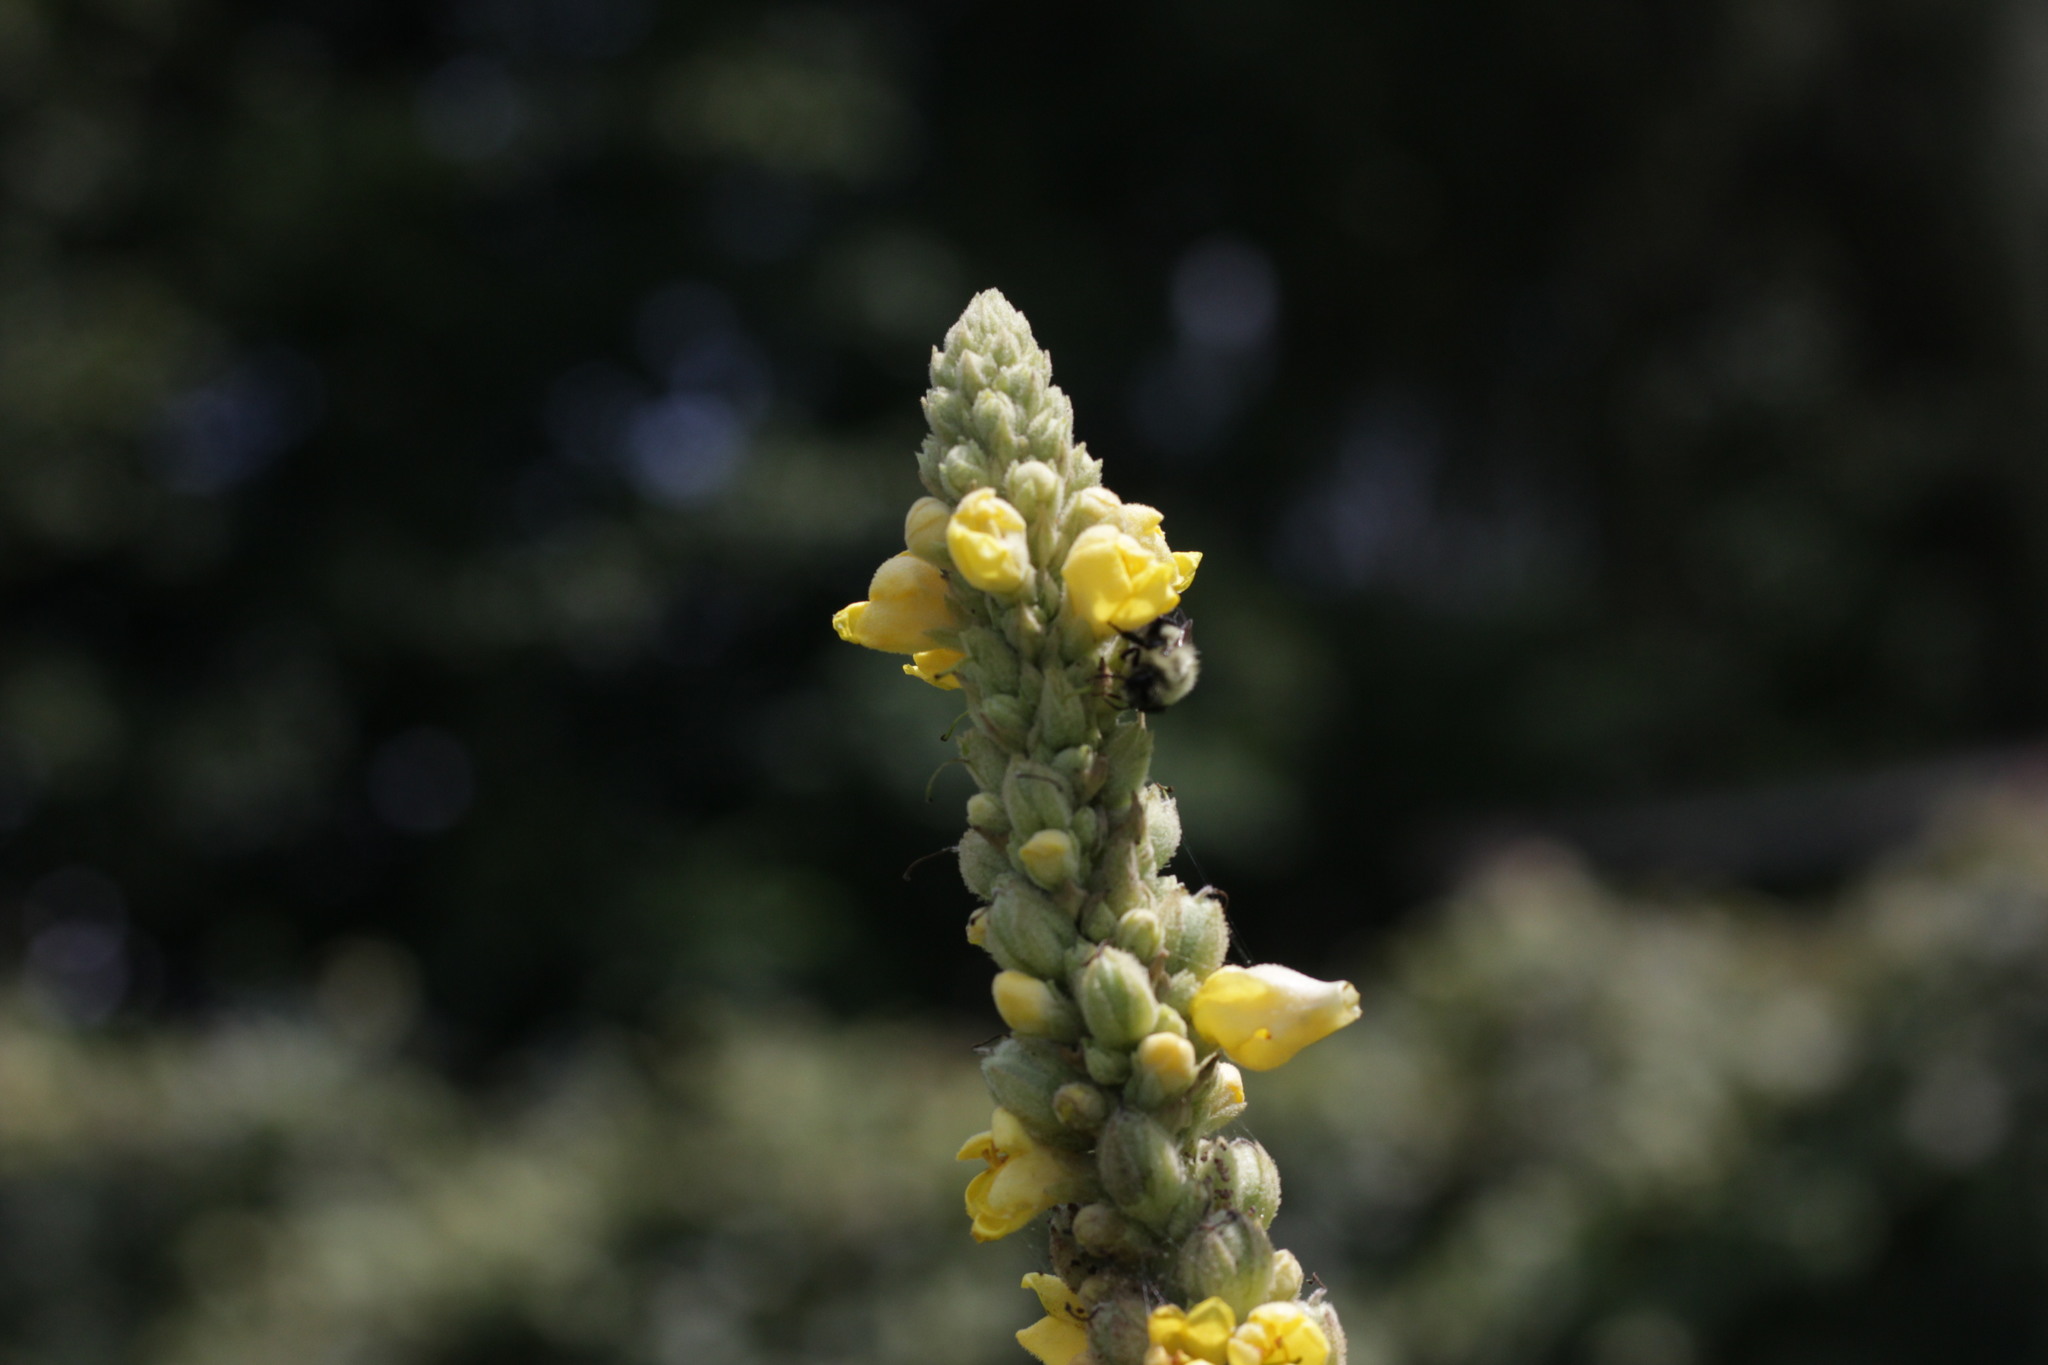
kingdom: Plantae
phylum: Tracheophyta
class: Magnoliopsida
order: Lamiales
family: Scrophulariaceae
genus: Verbascum
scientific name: Verbascum thapsus
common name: Common mullein
